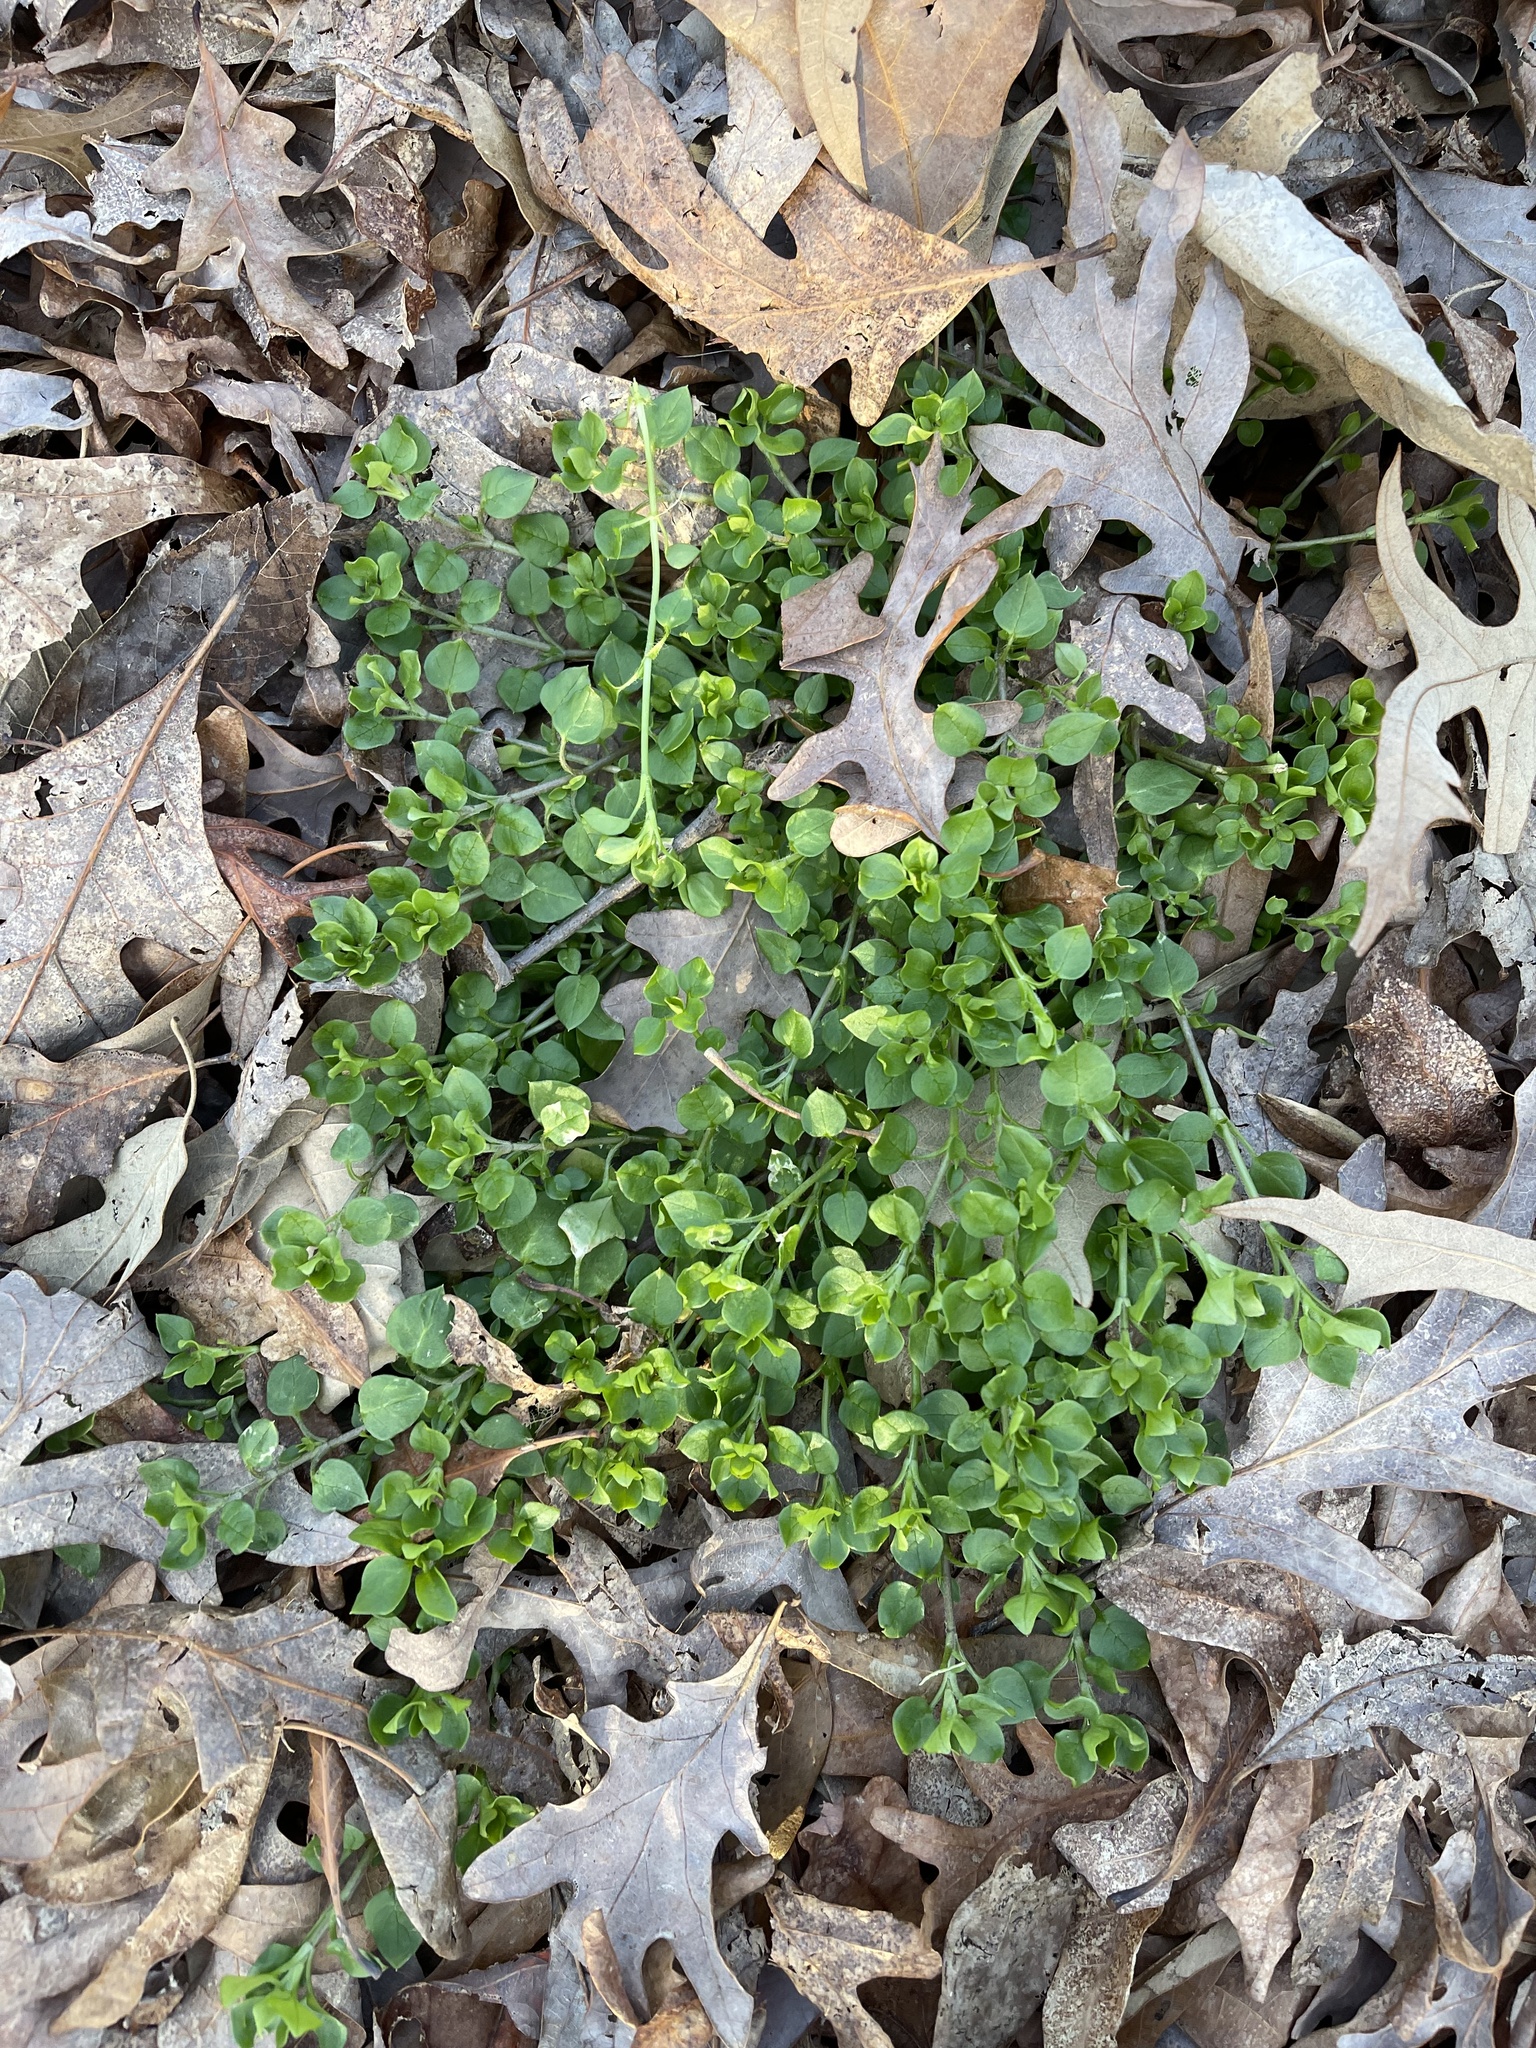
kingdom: Plantae
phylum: Tracheophyta
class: Magnoliopsida
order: Caryophyllales
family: Caryophyllaceae
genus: Stellaria
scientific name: Stellaria media
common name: Common chickweed
